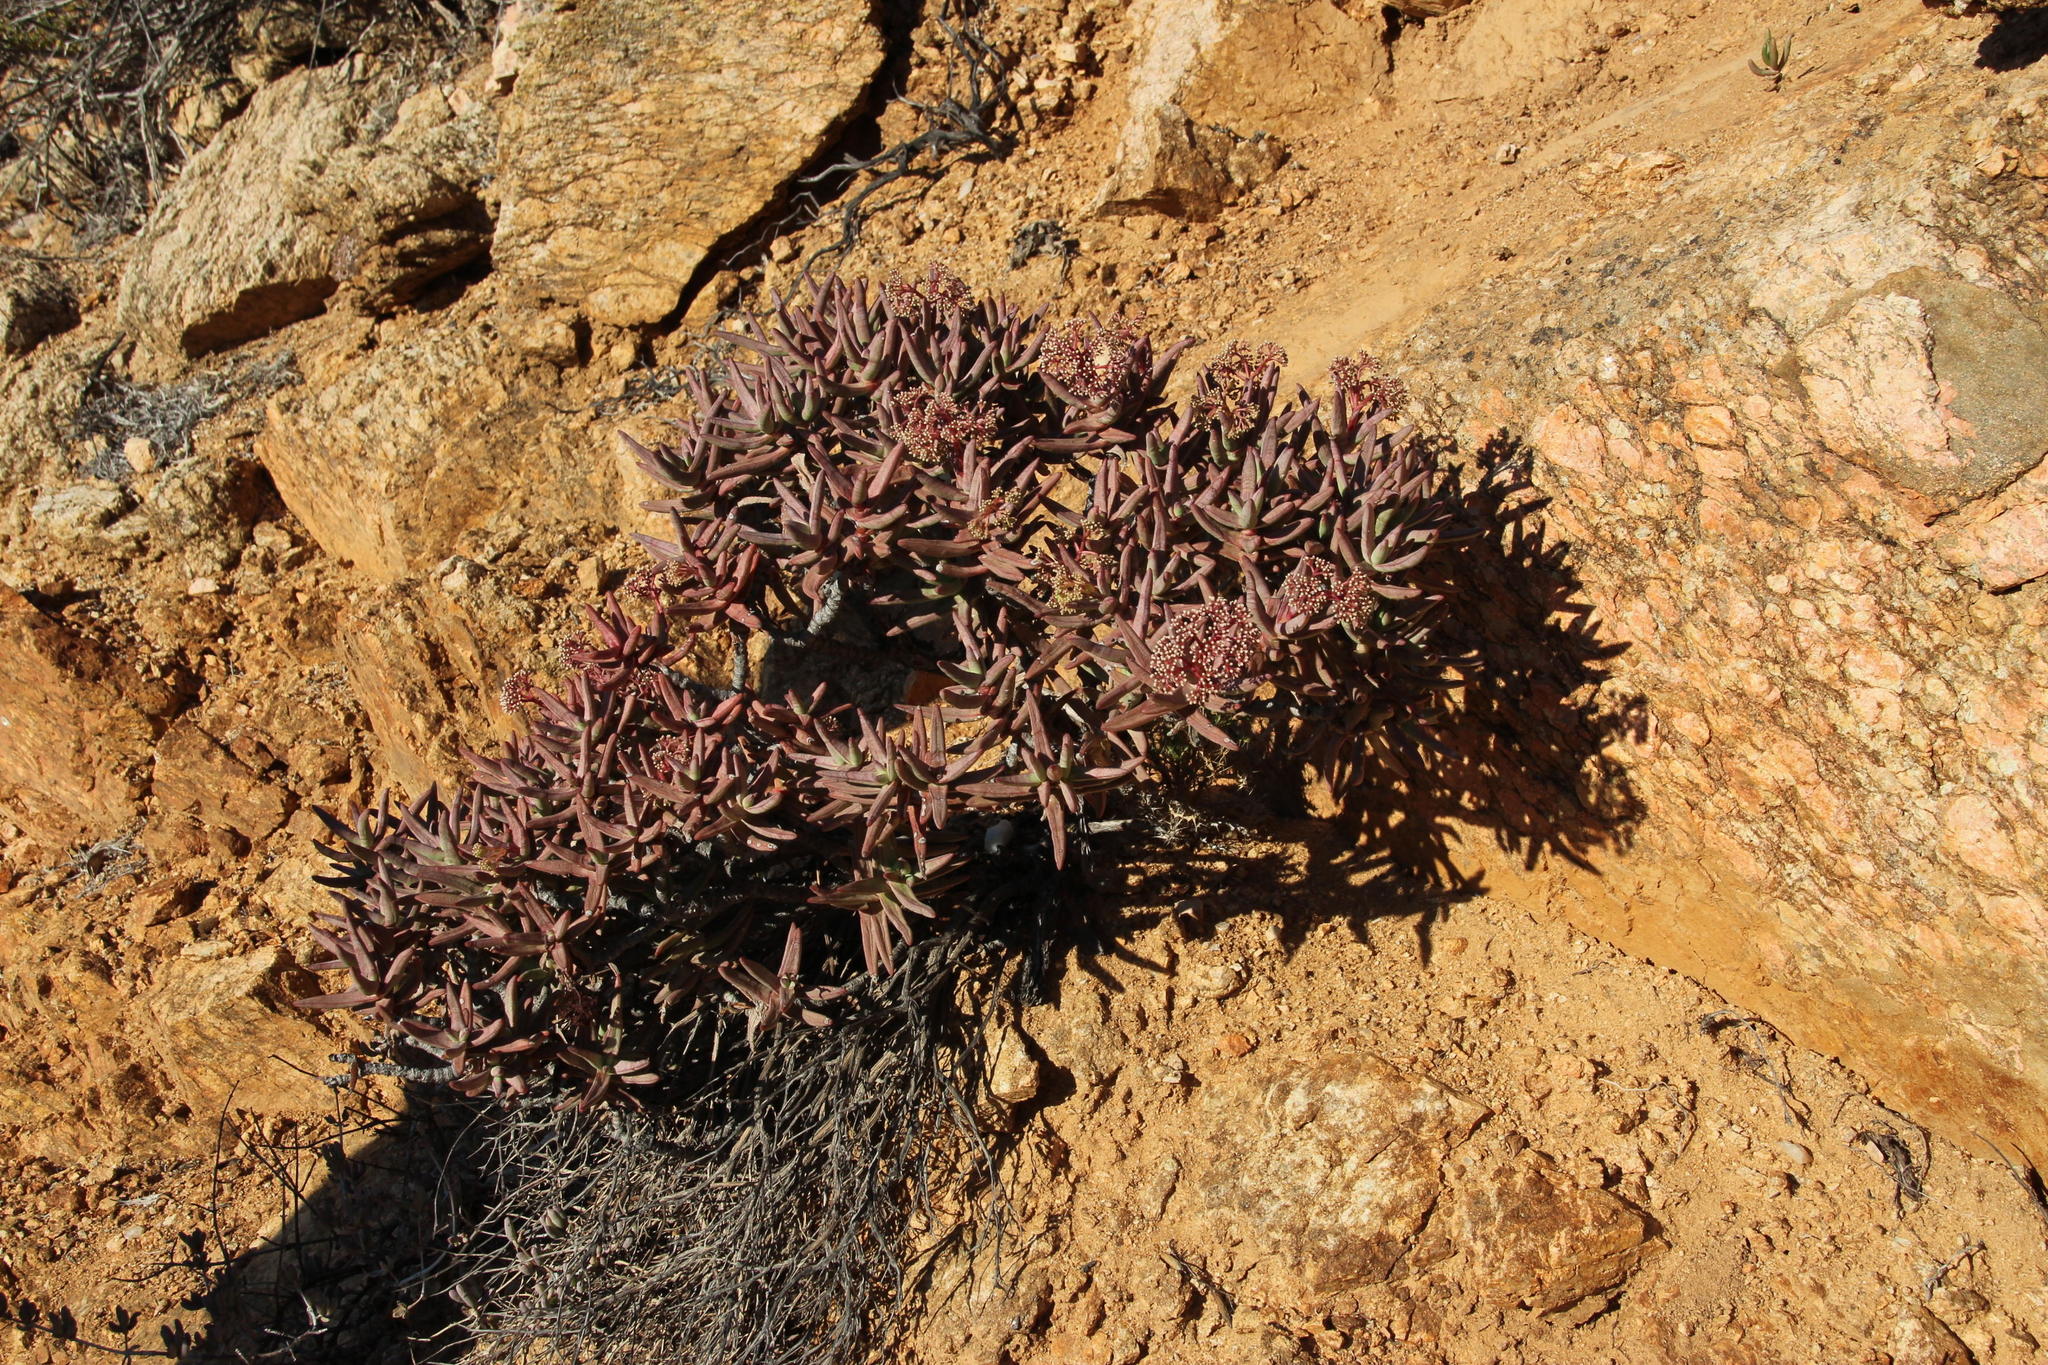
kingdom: Plantae
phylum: Tracheophyta
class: Magnoliopsida
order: Saxifragales
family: Crassulaceae
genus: Crassula
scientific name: Crassula macowaniana
